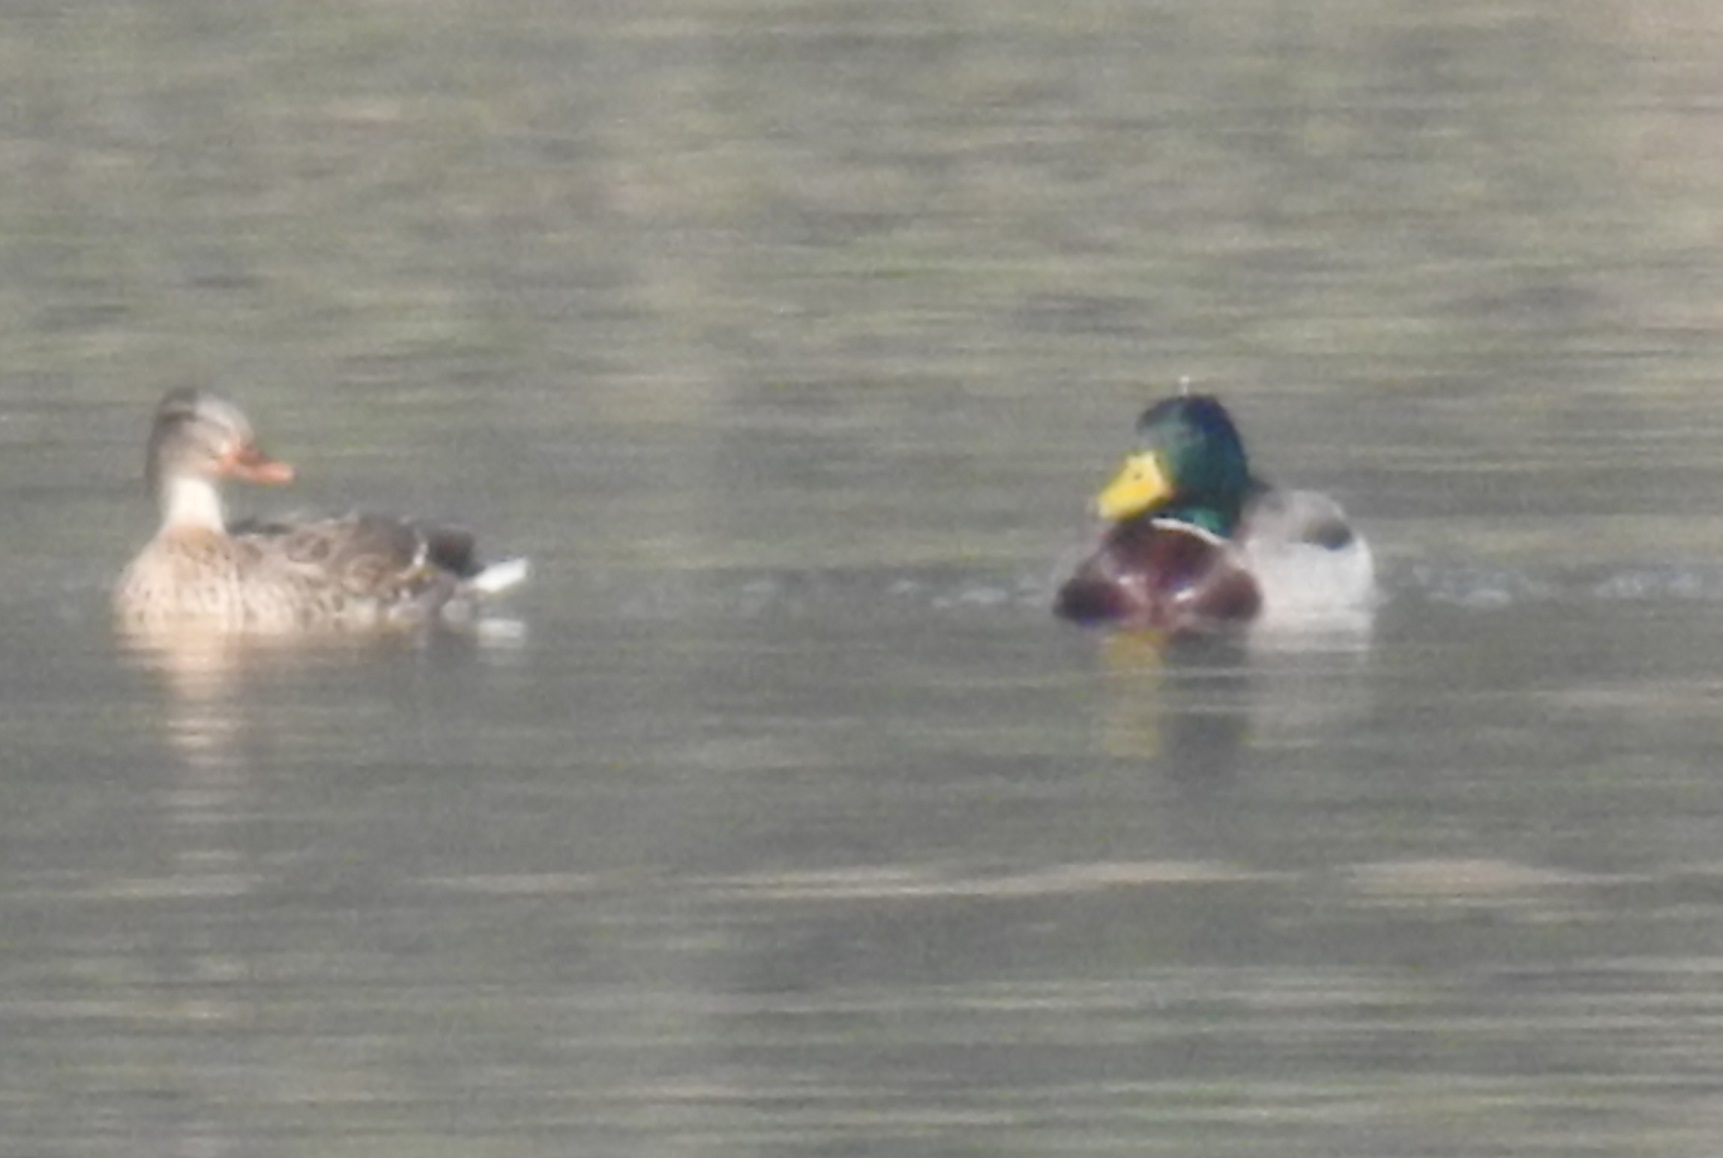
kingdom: Animalia
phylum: Chordata
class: Aves
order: Anseriformes
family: Anatidae
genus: Anas
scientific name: Anas platyrhynchos
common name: Mallard
